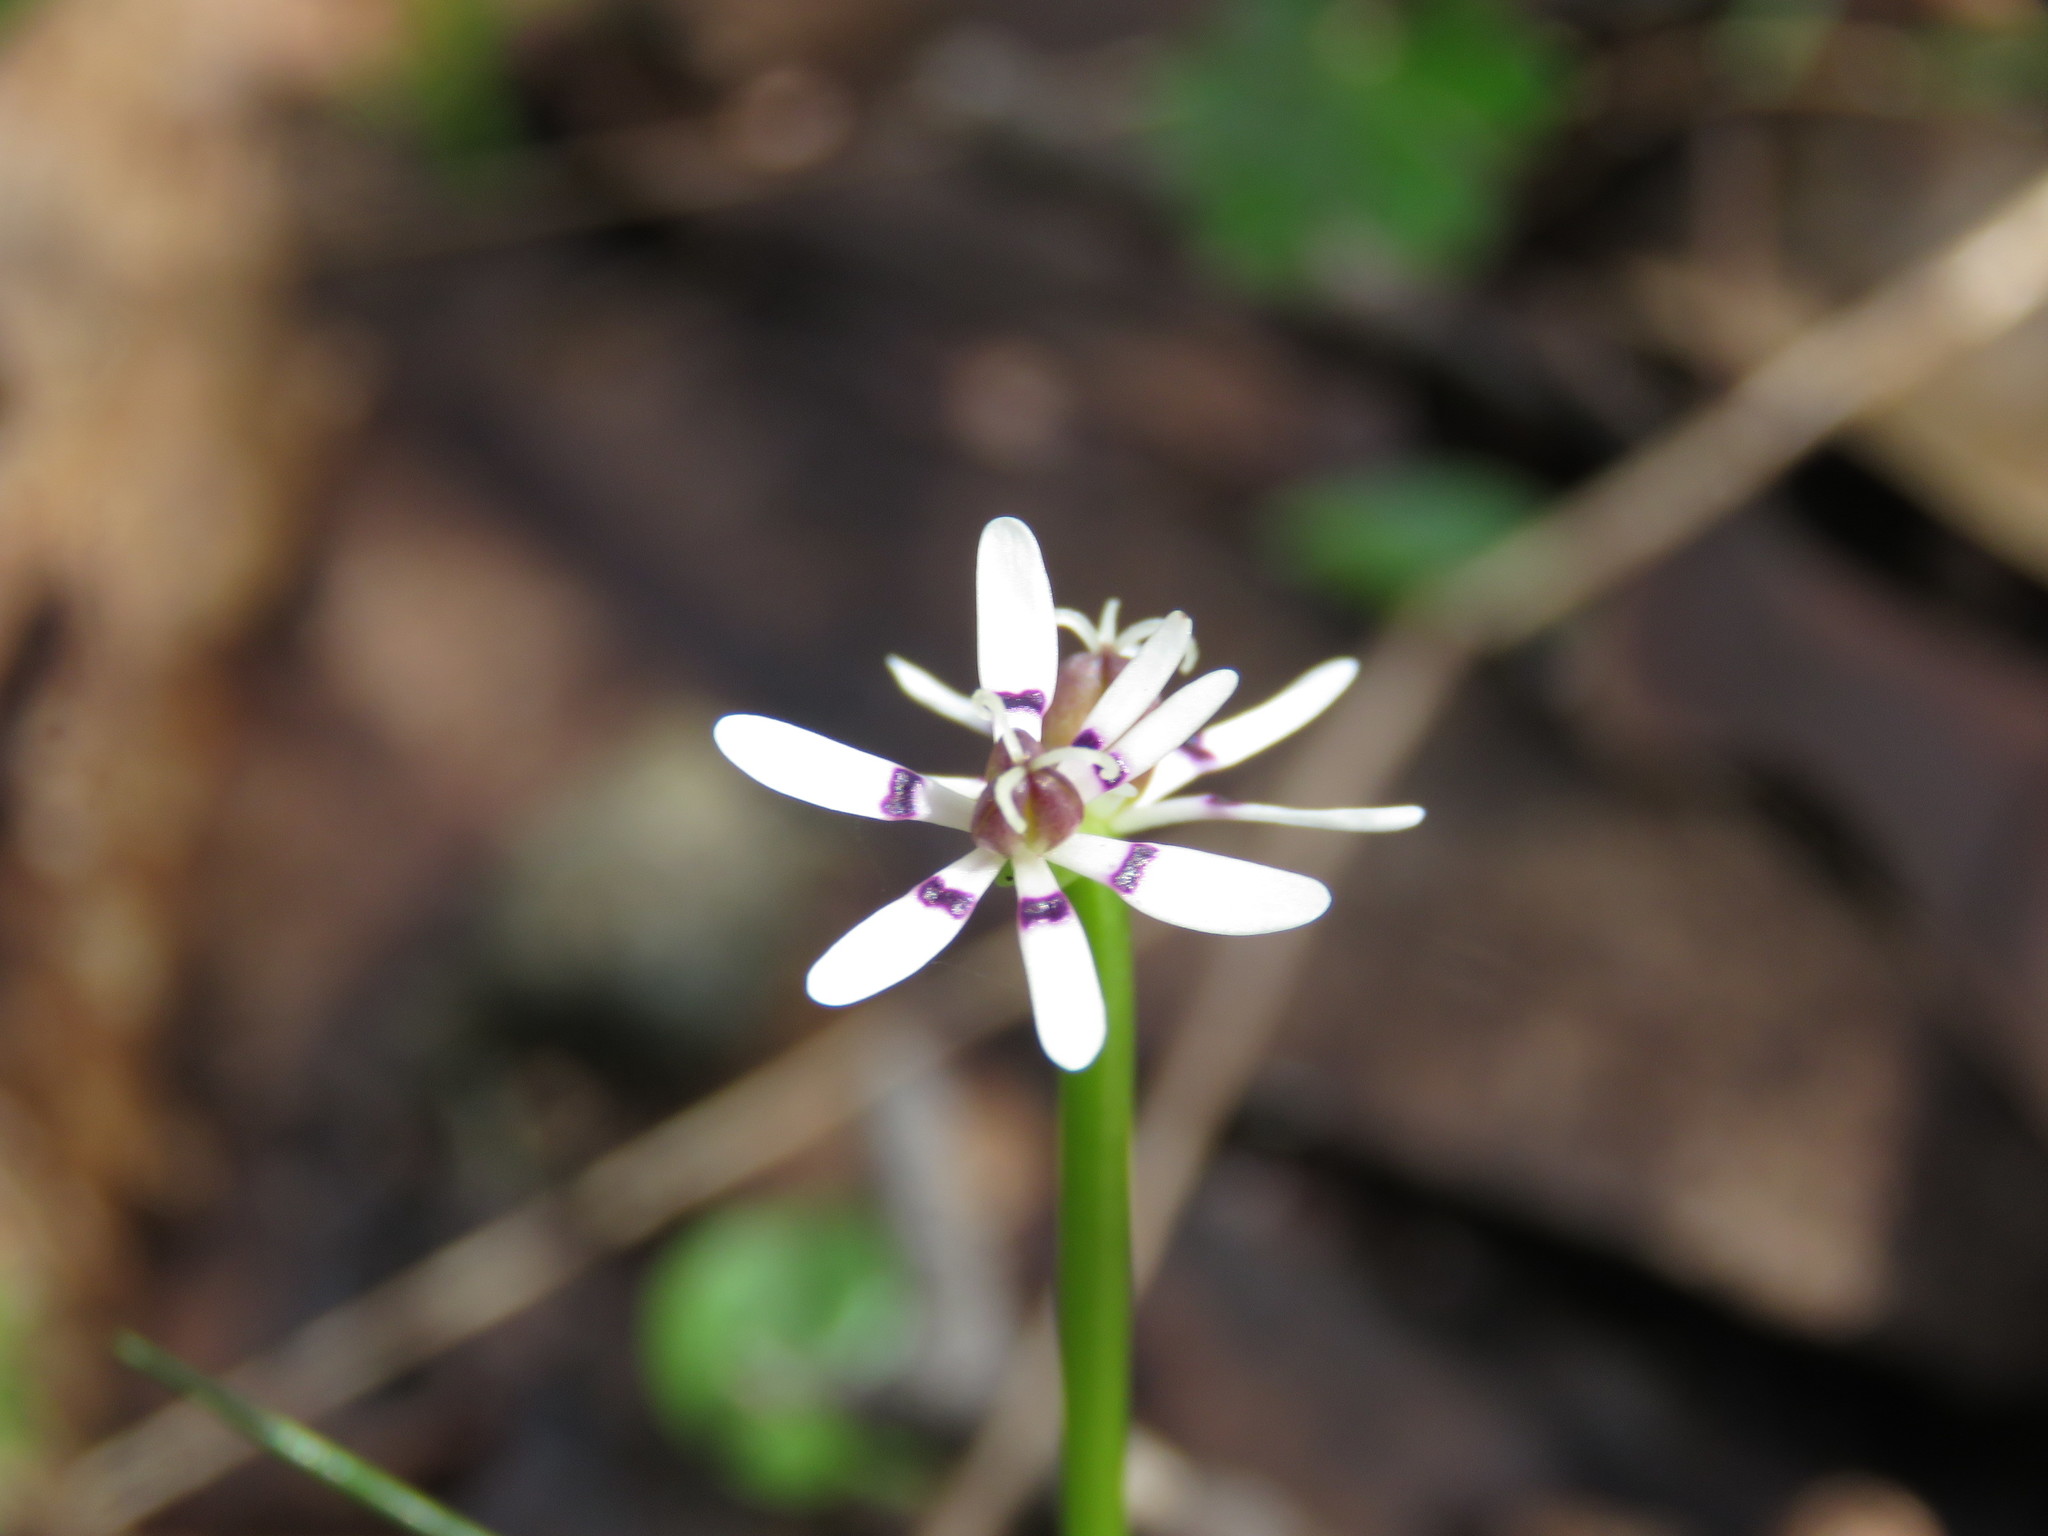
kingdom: Plantae
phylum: Tracheophyta
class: Liliopsida
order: Liliales
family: Colchicaceae
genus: Wurmbea
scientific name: Wurmbea dioica
